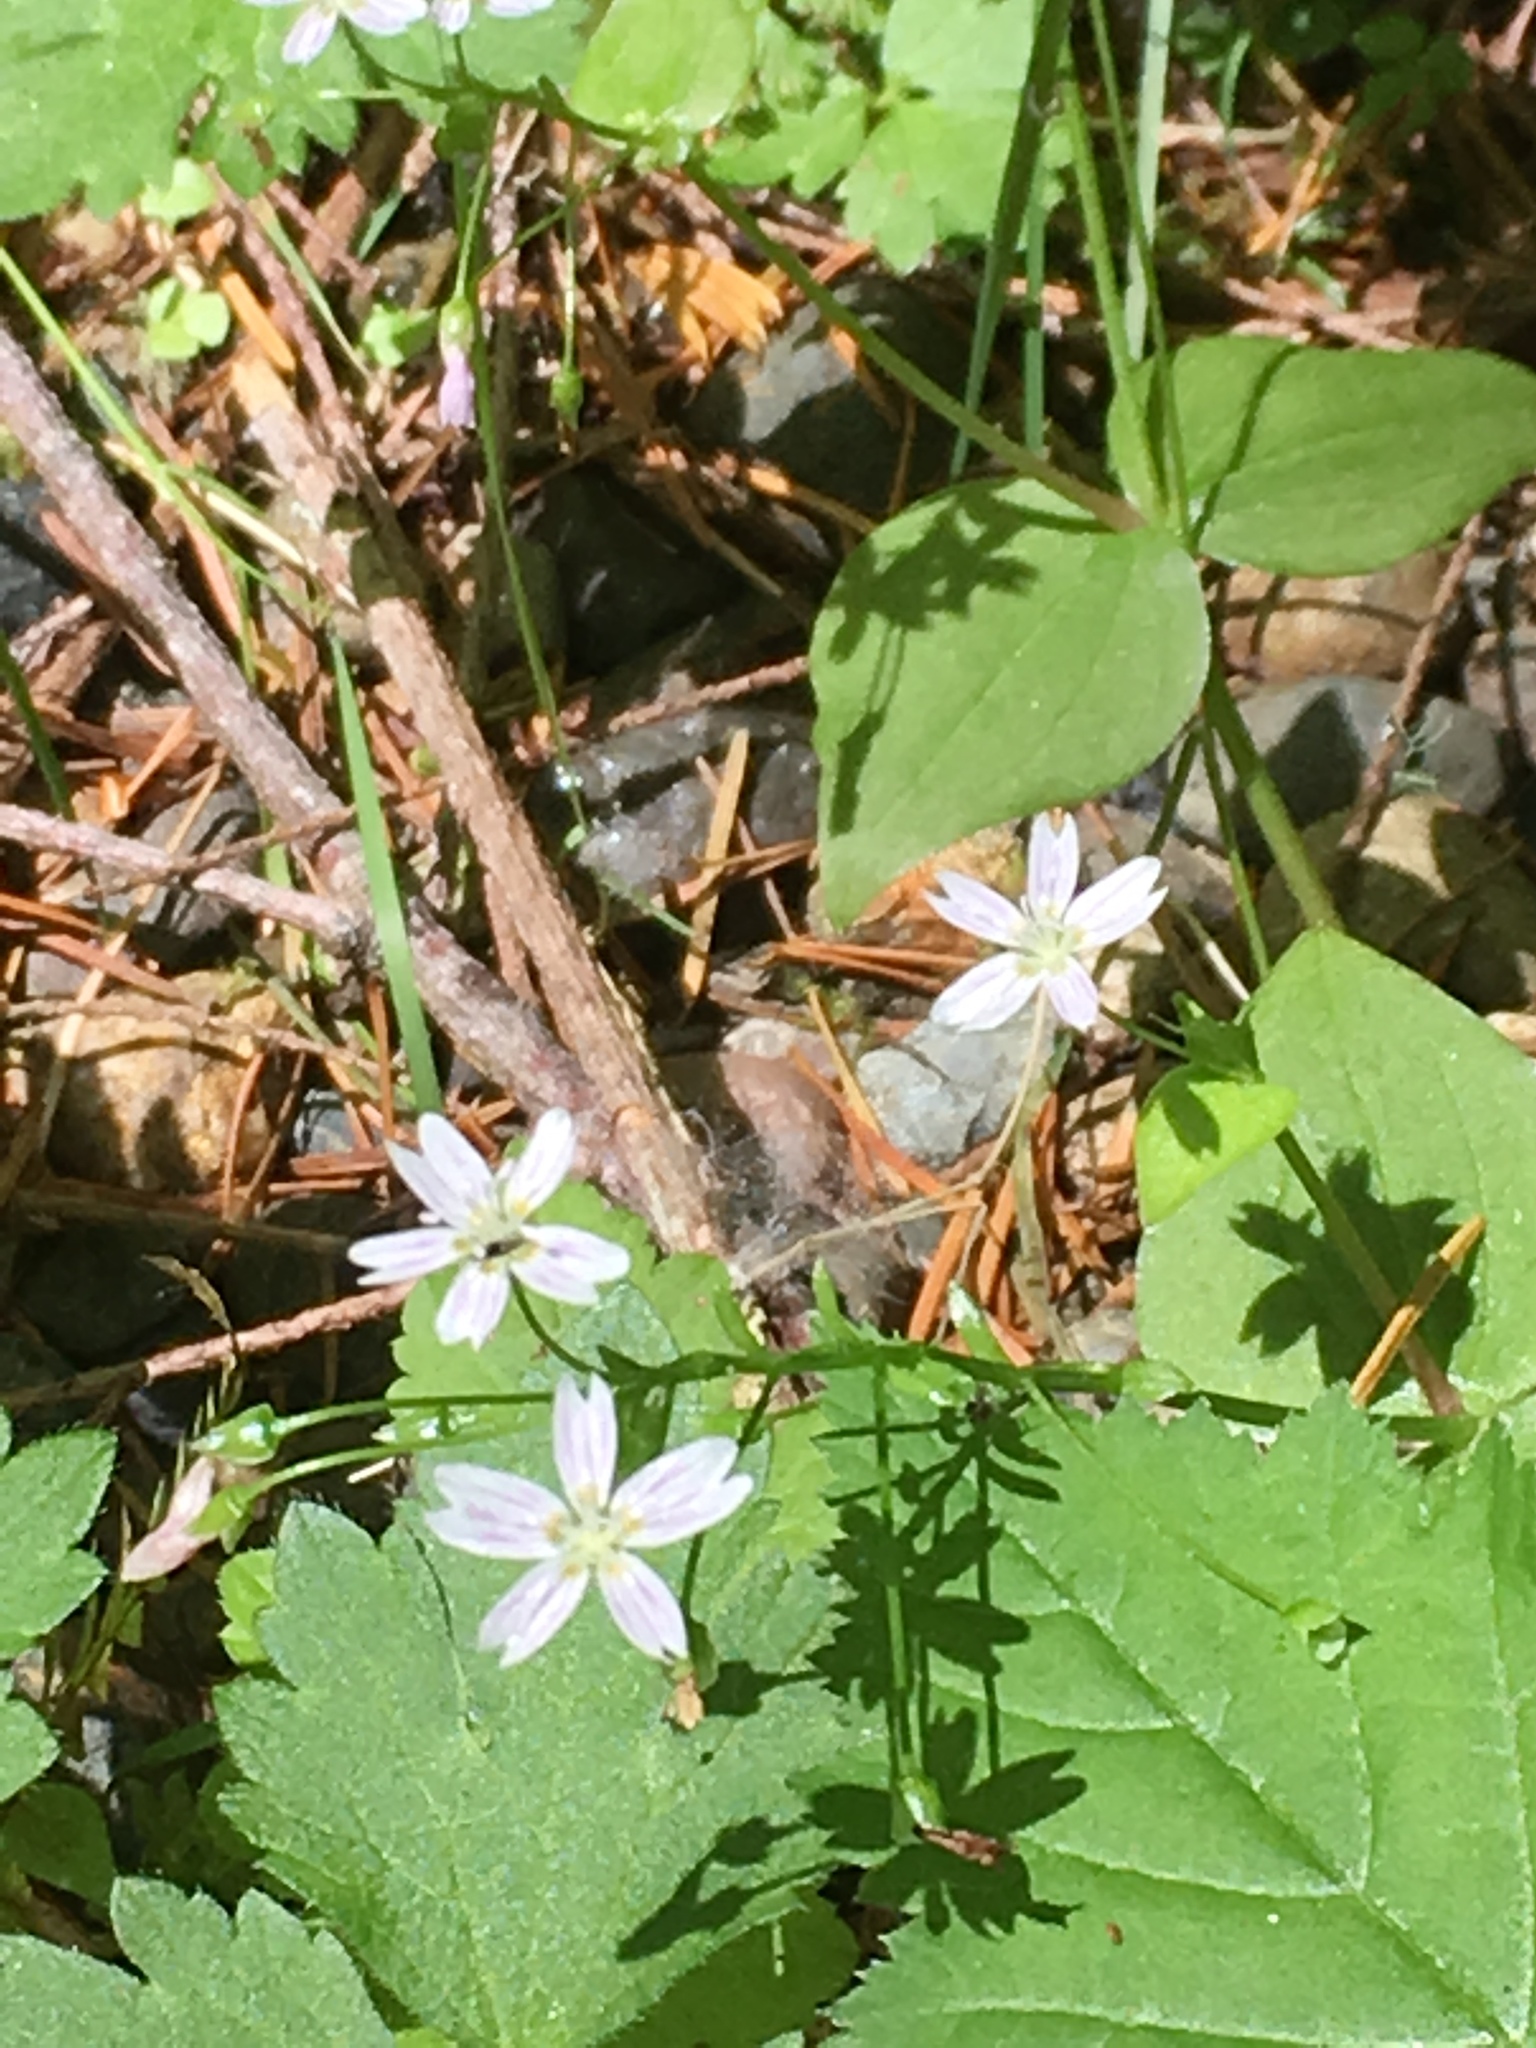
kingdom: Plantae
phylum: Tracheophyta
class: Magnoliopsida
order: Caryophyllales
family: Montiaceae
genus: Claytonia
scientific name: Claytonia sibirica
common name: Pink purslane
